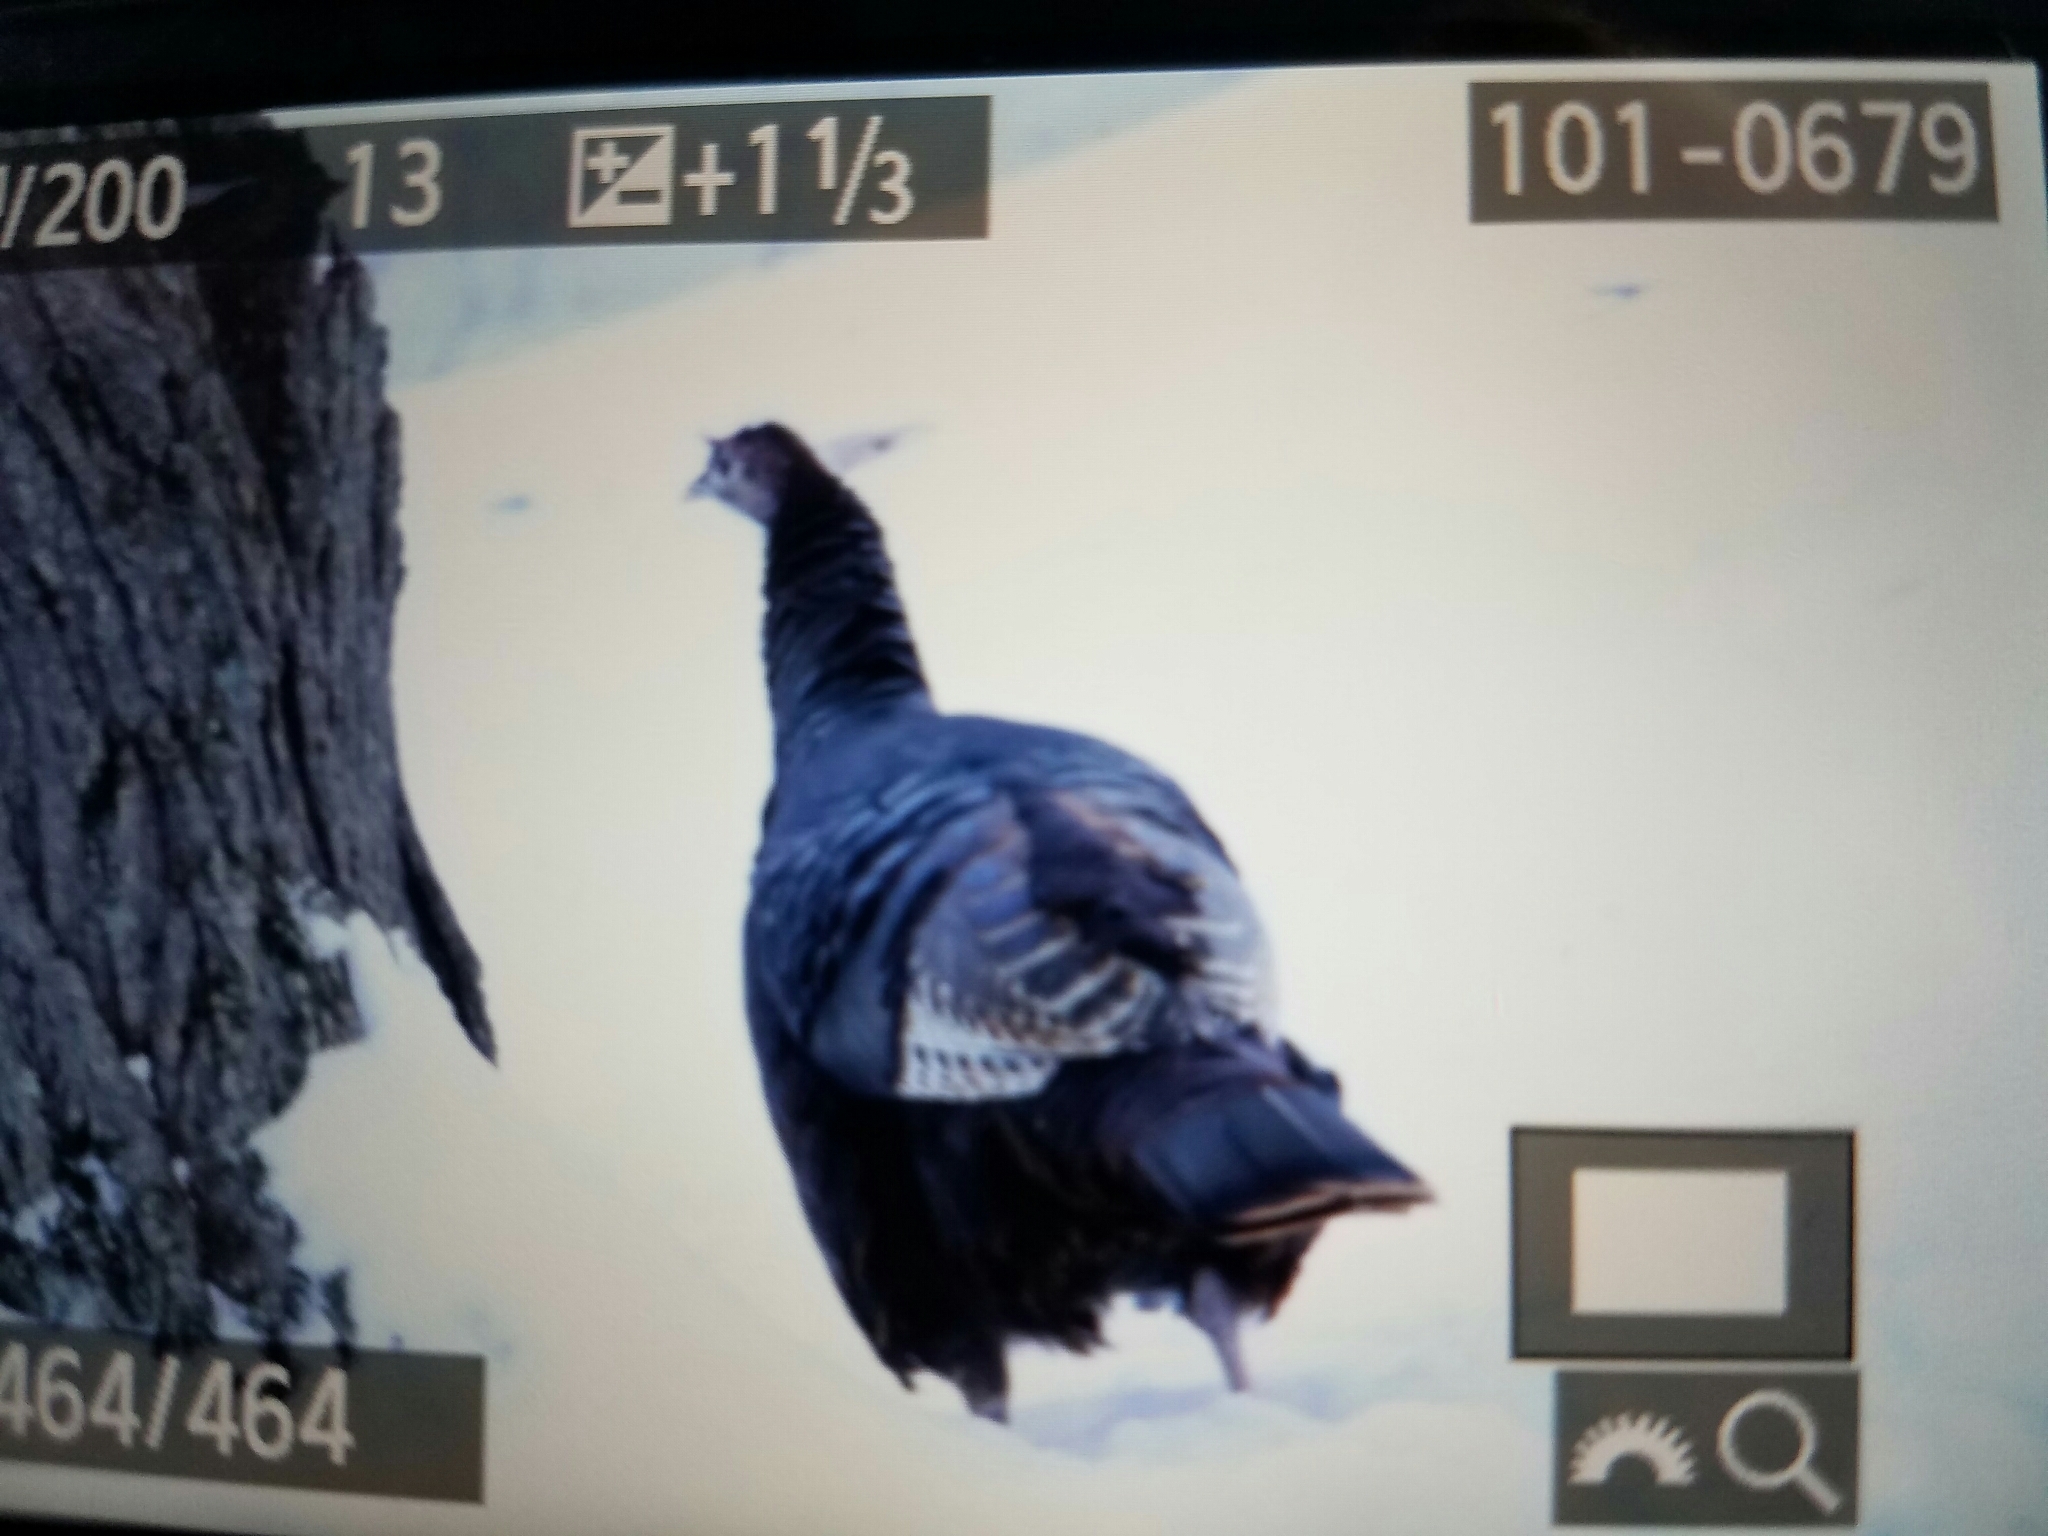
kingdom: Animalia
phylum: Chordata
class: Aves
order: Galliformes
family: Phasianidae
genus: Meleagris
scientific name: Meleagris gallopavo
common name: Wild turkey
